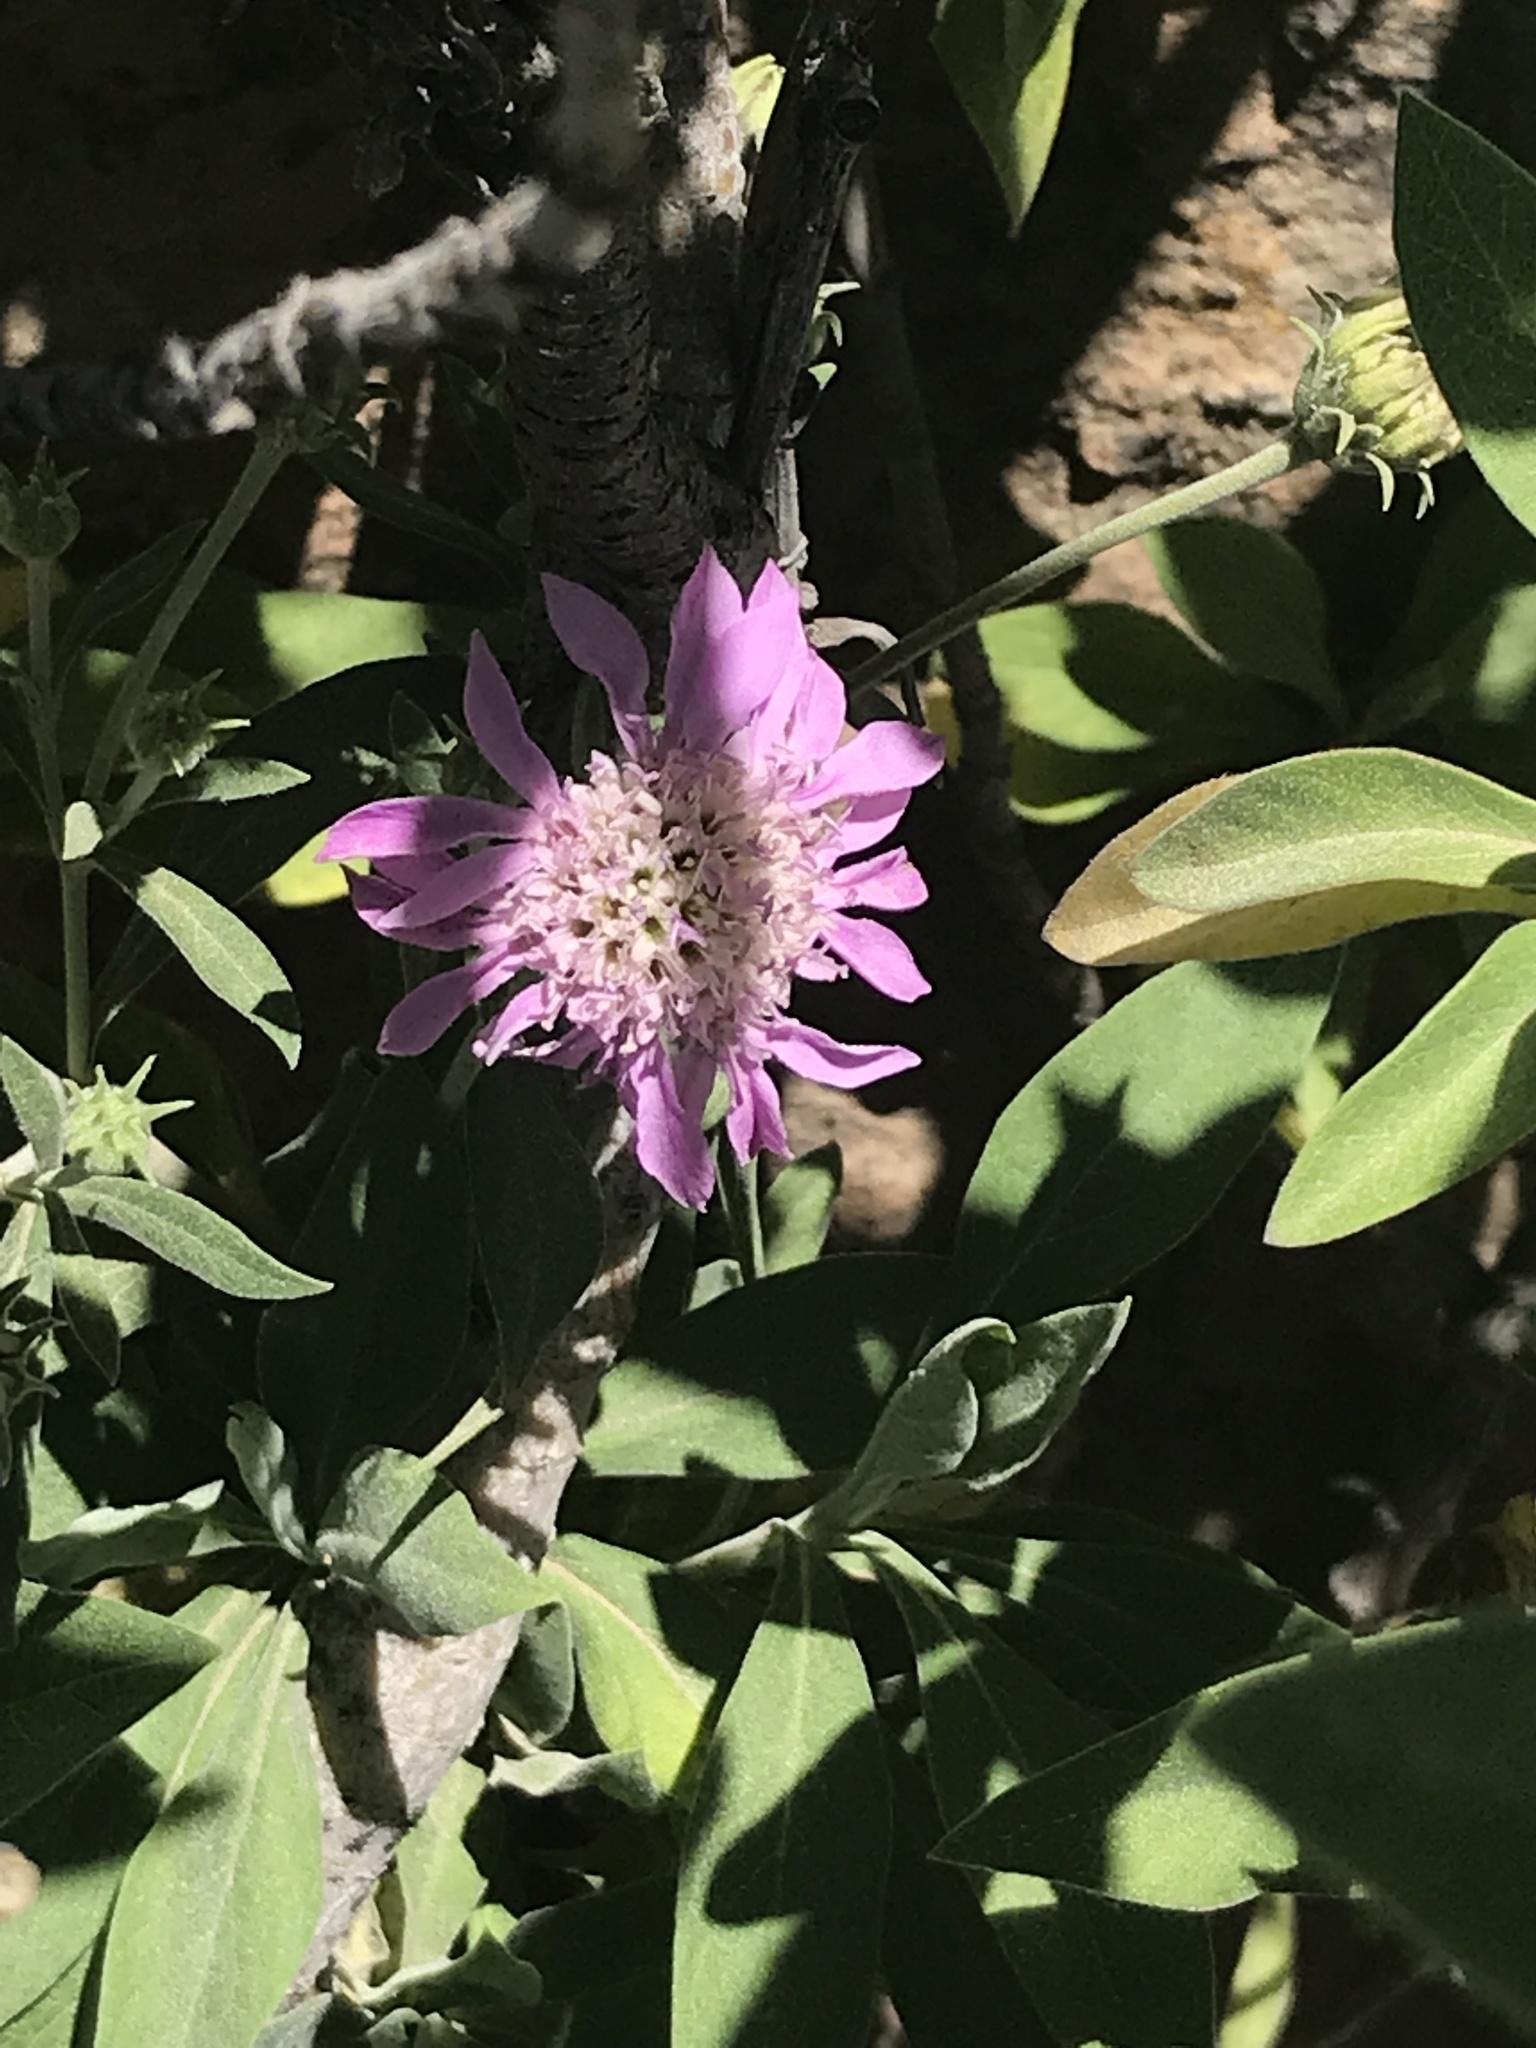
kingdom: Plantae
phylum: Tracheophyta
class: Magnoliopsida
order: Dipsacales
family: Caprifoliaceae
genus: Pterocephalus
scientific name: Pterocephalus dumetorus
